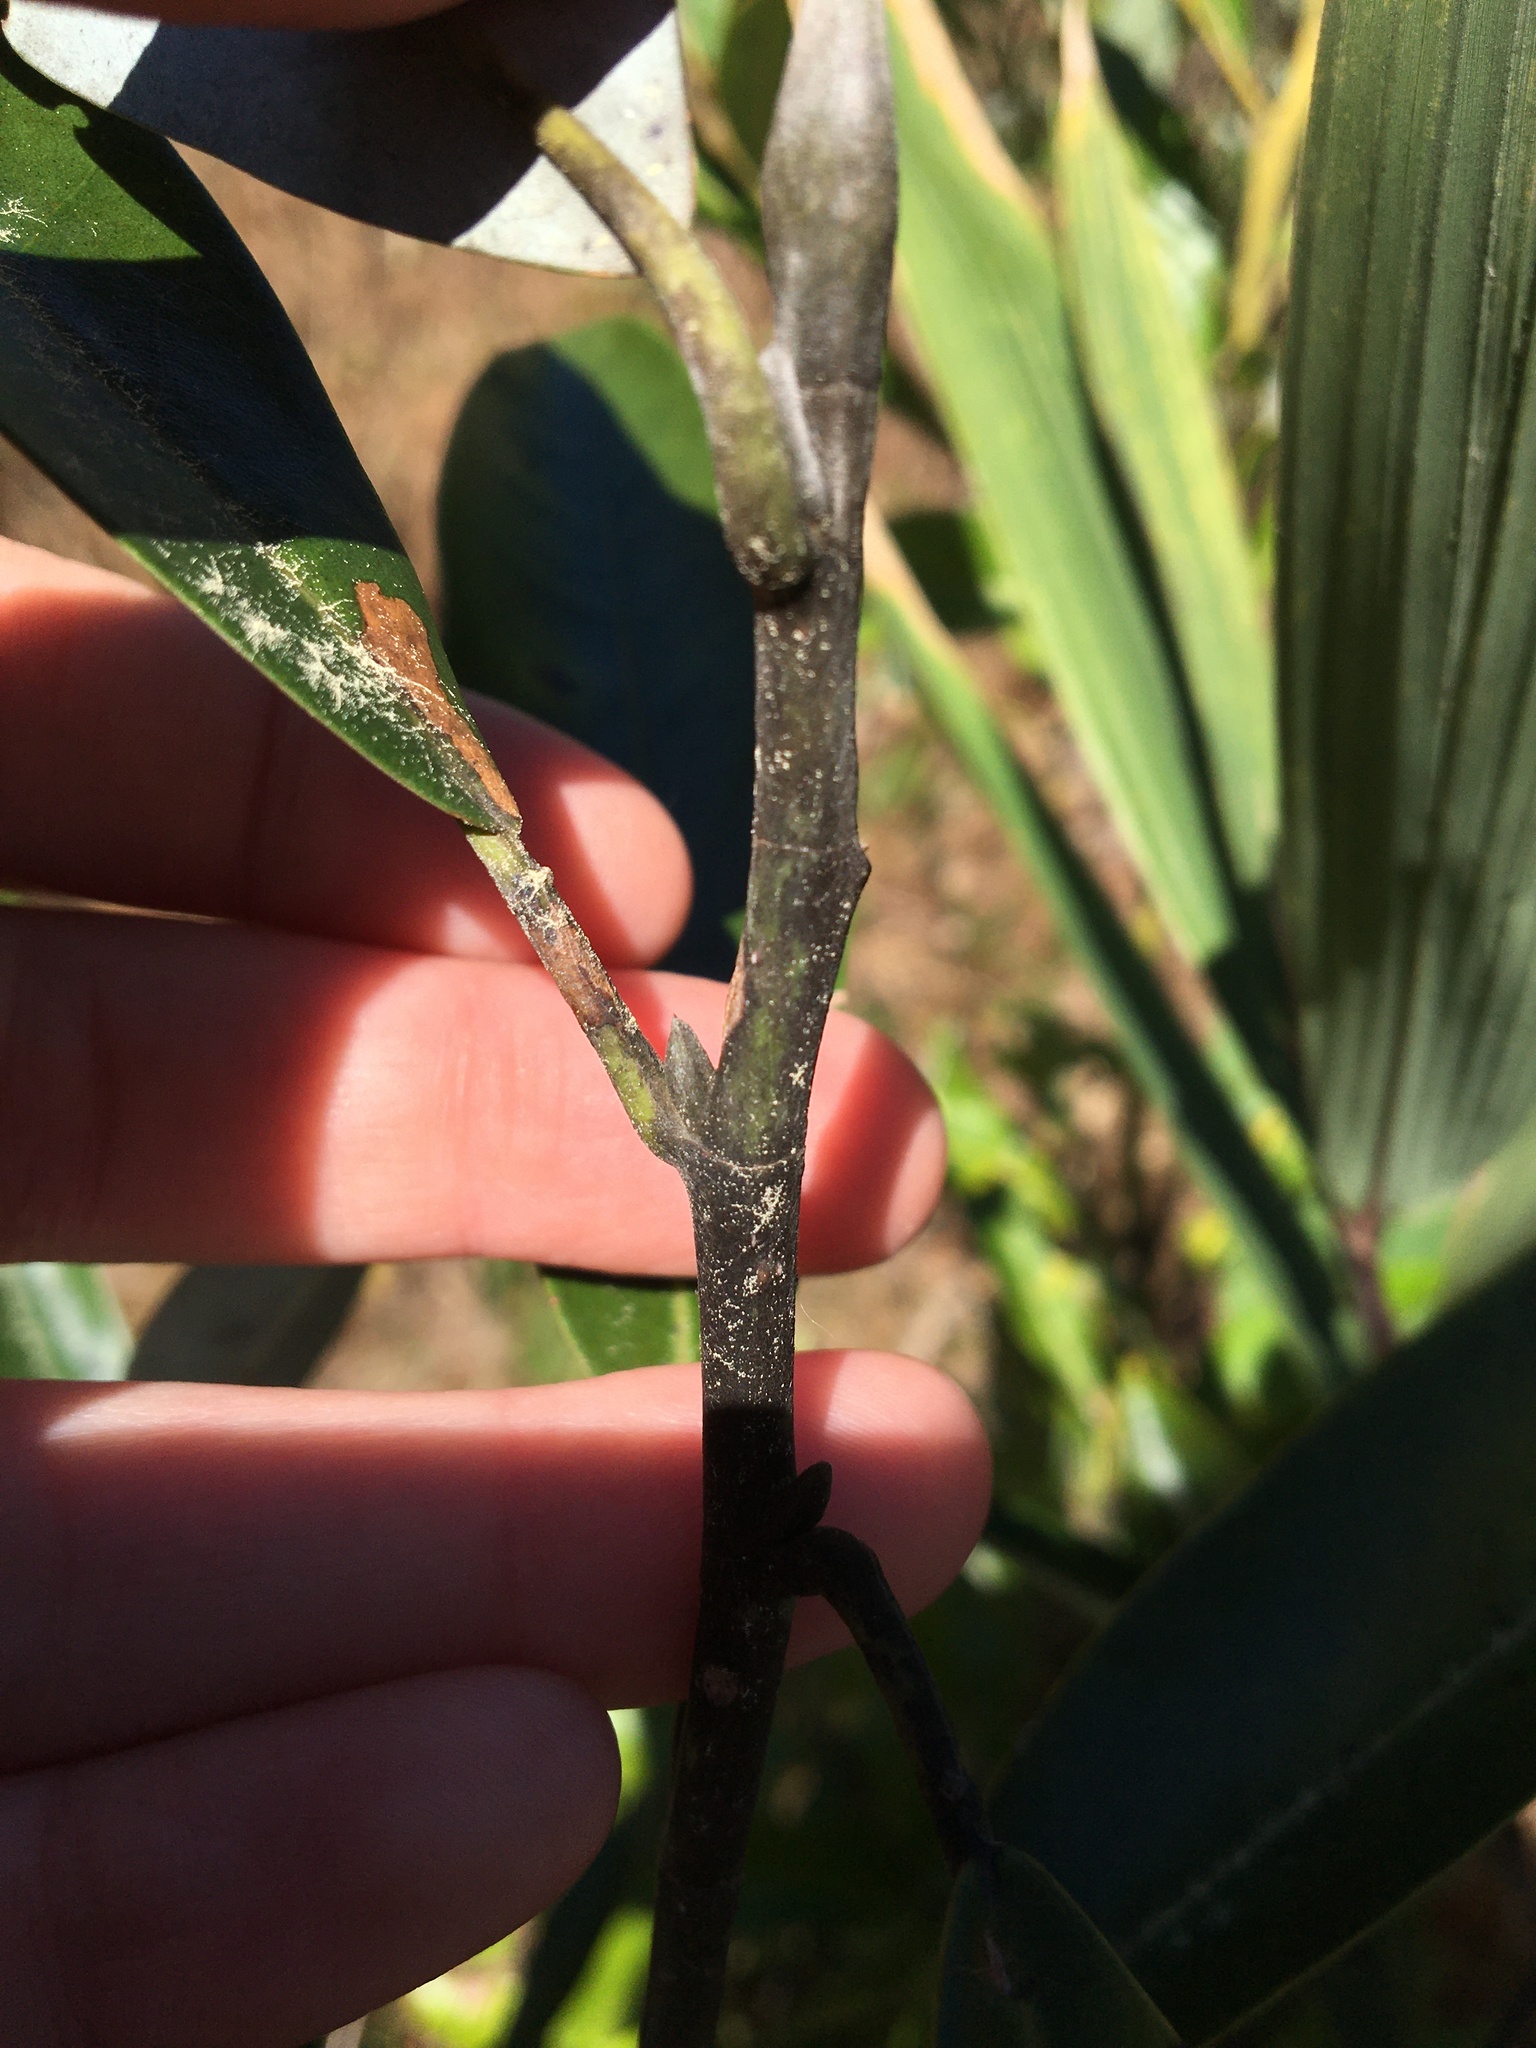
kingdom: Plantae
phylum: Tracheophyta
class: Magnoliopsida
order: Magnoliales
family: Magnoliaceae
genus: Magnolia
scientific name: Magnolia virginiana
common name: Swamp bay
